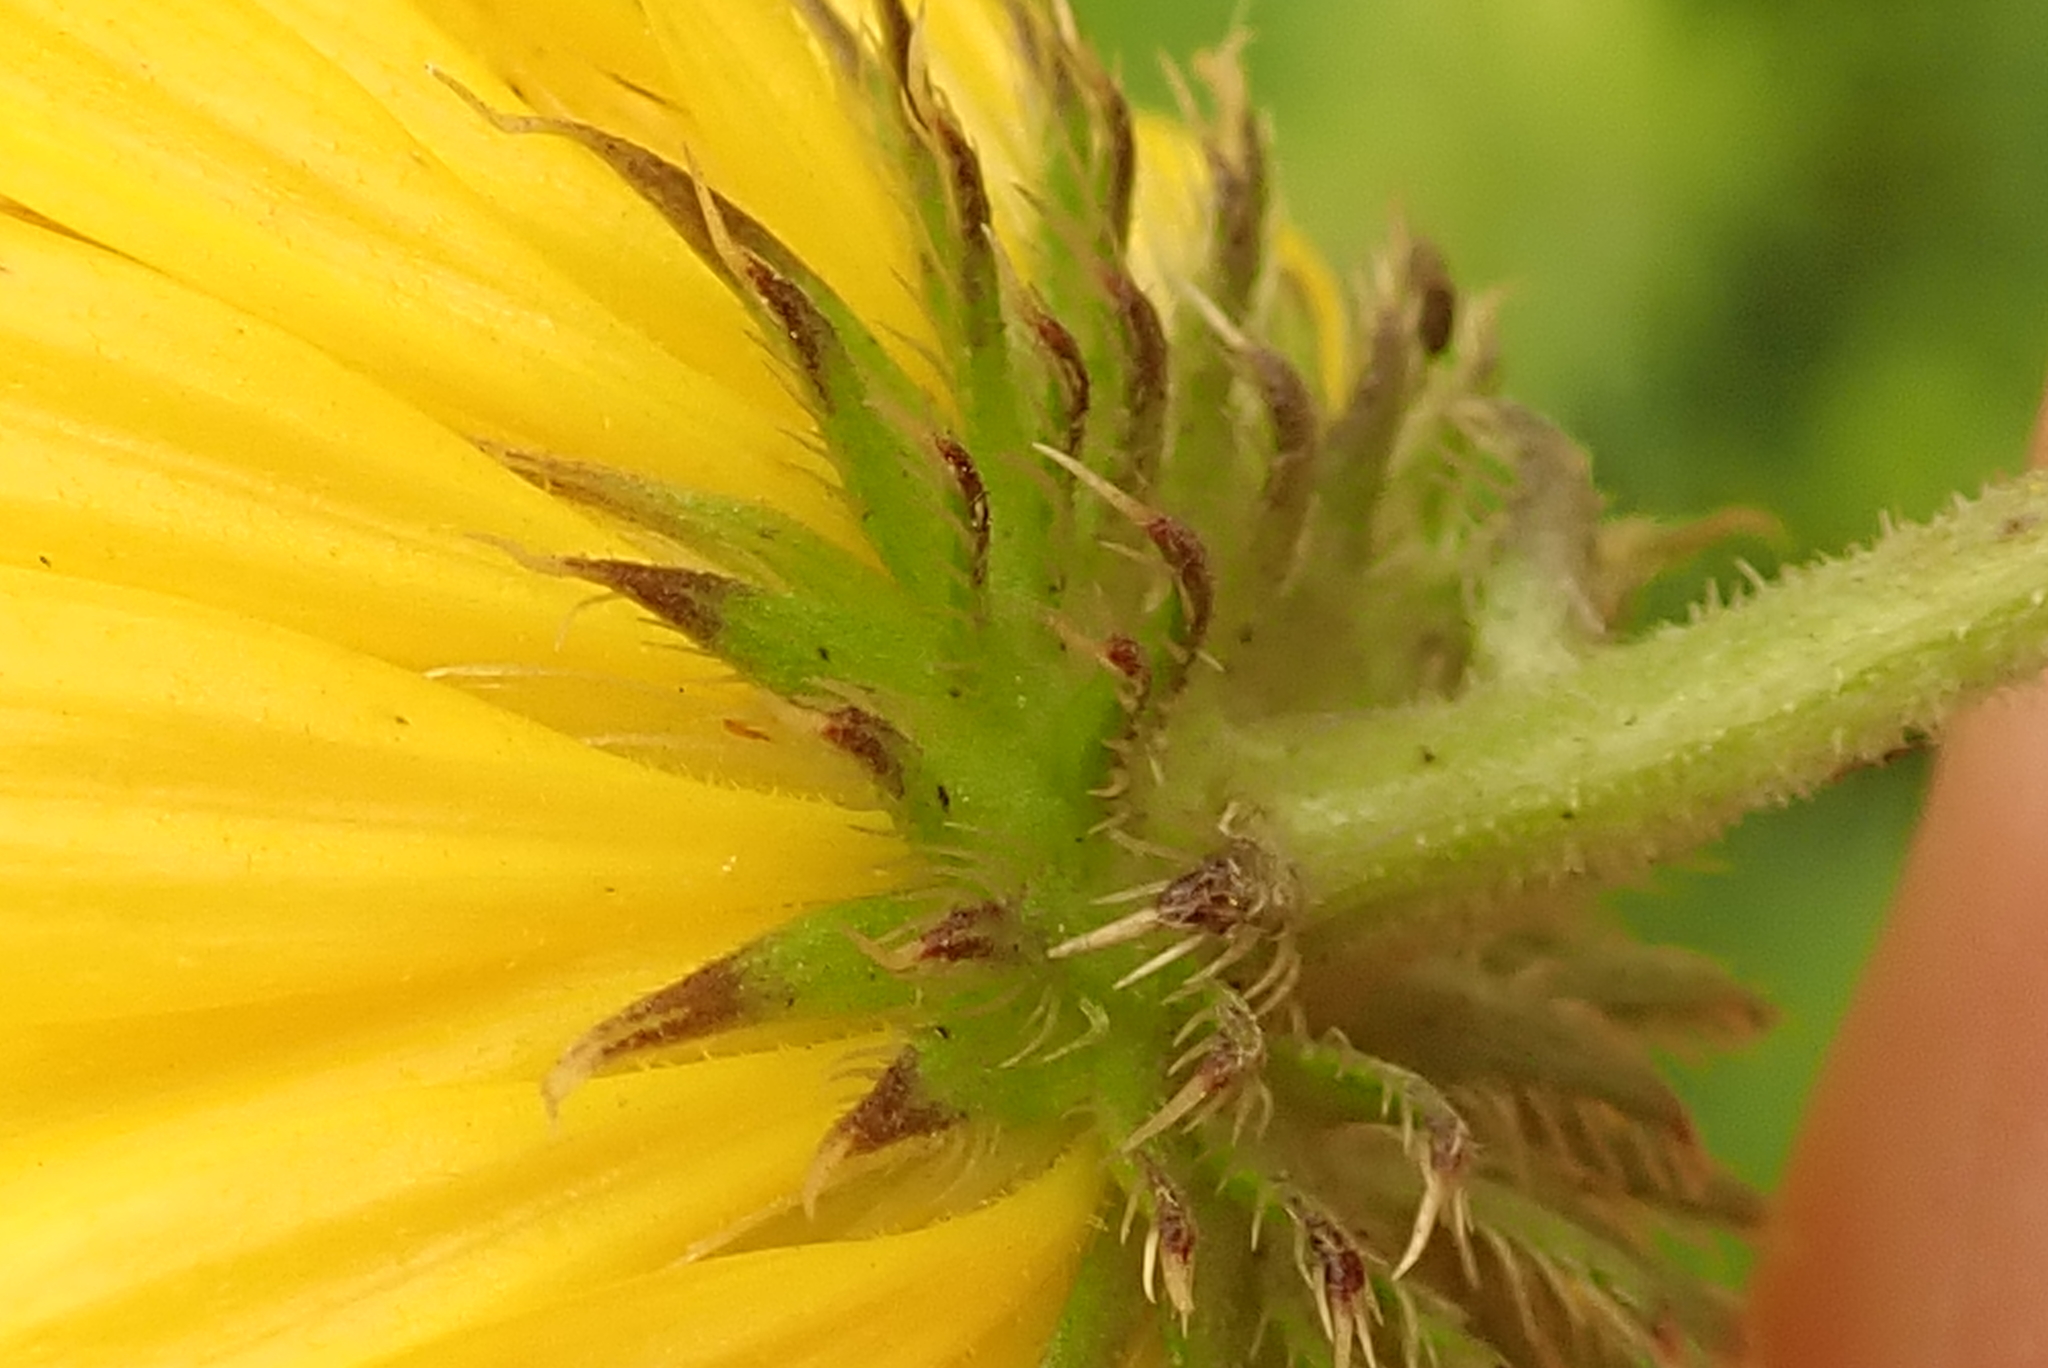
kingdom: Plantae
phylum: Tracheophyta
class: Magnoliopsida
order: Asterales
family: Asteraceae
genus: Berkheya
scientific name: Berkheya setifera
